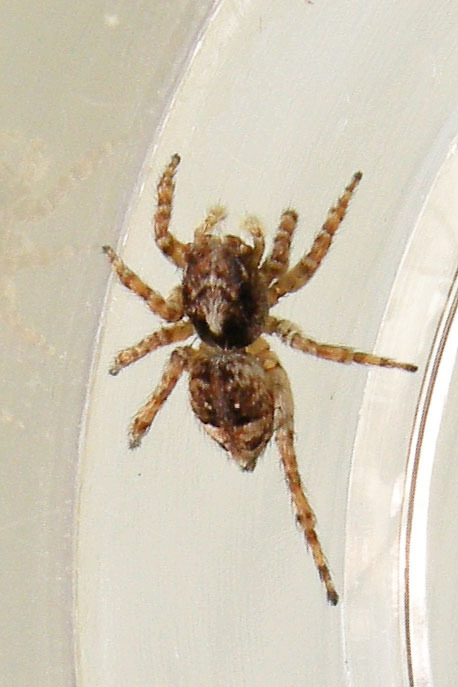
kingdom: Animalia
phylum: Arthropoda
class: Arachnida
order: Araneae
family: Salticidae
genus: Attulus
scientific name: Attulus fasciger
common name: Asiatic wall jumping spider
